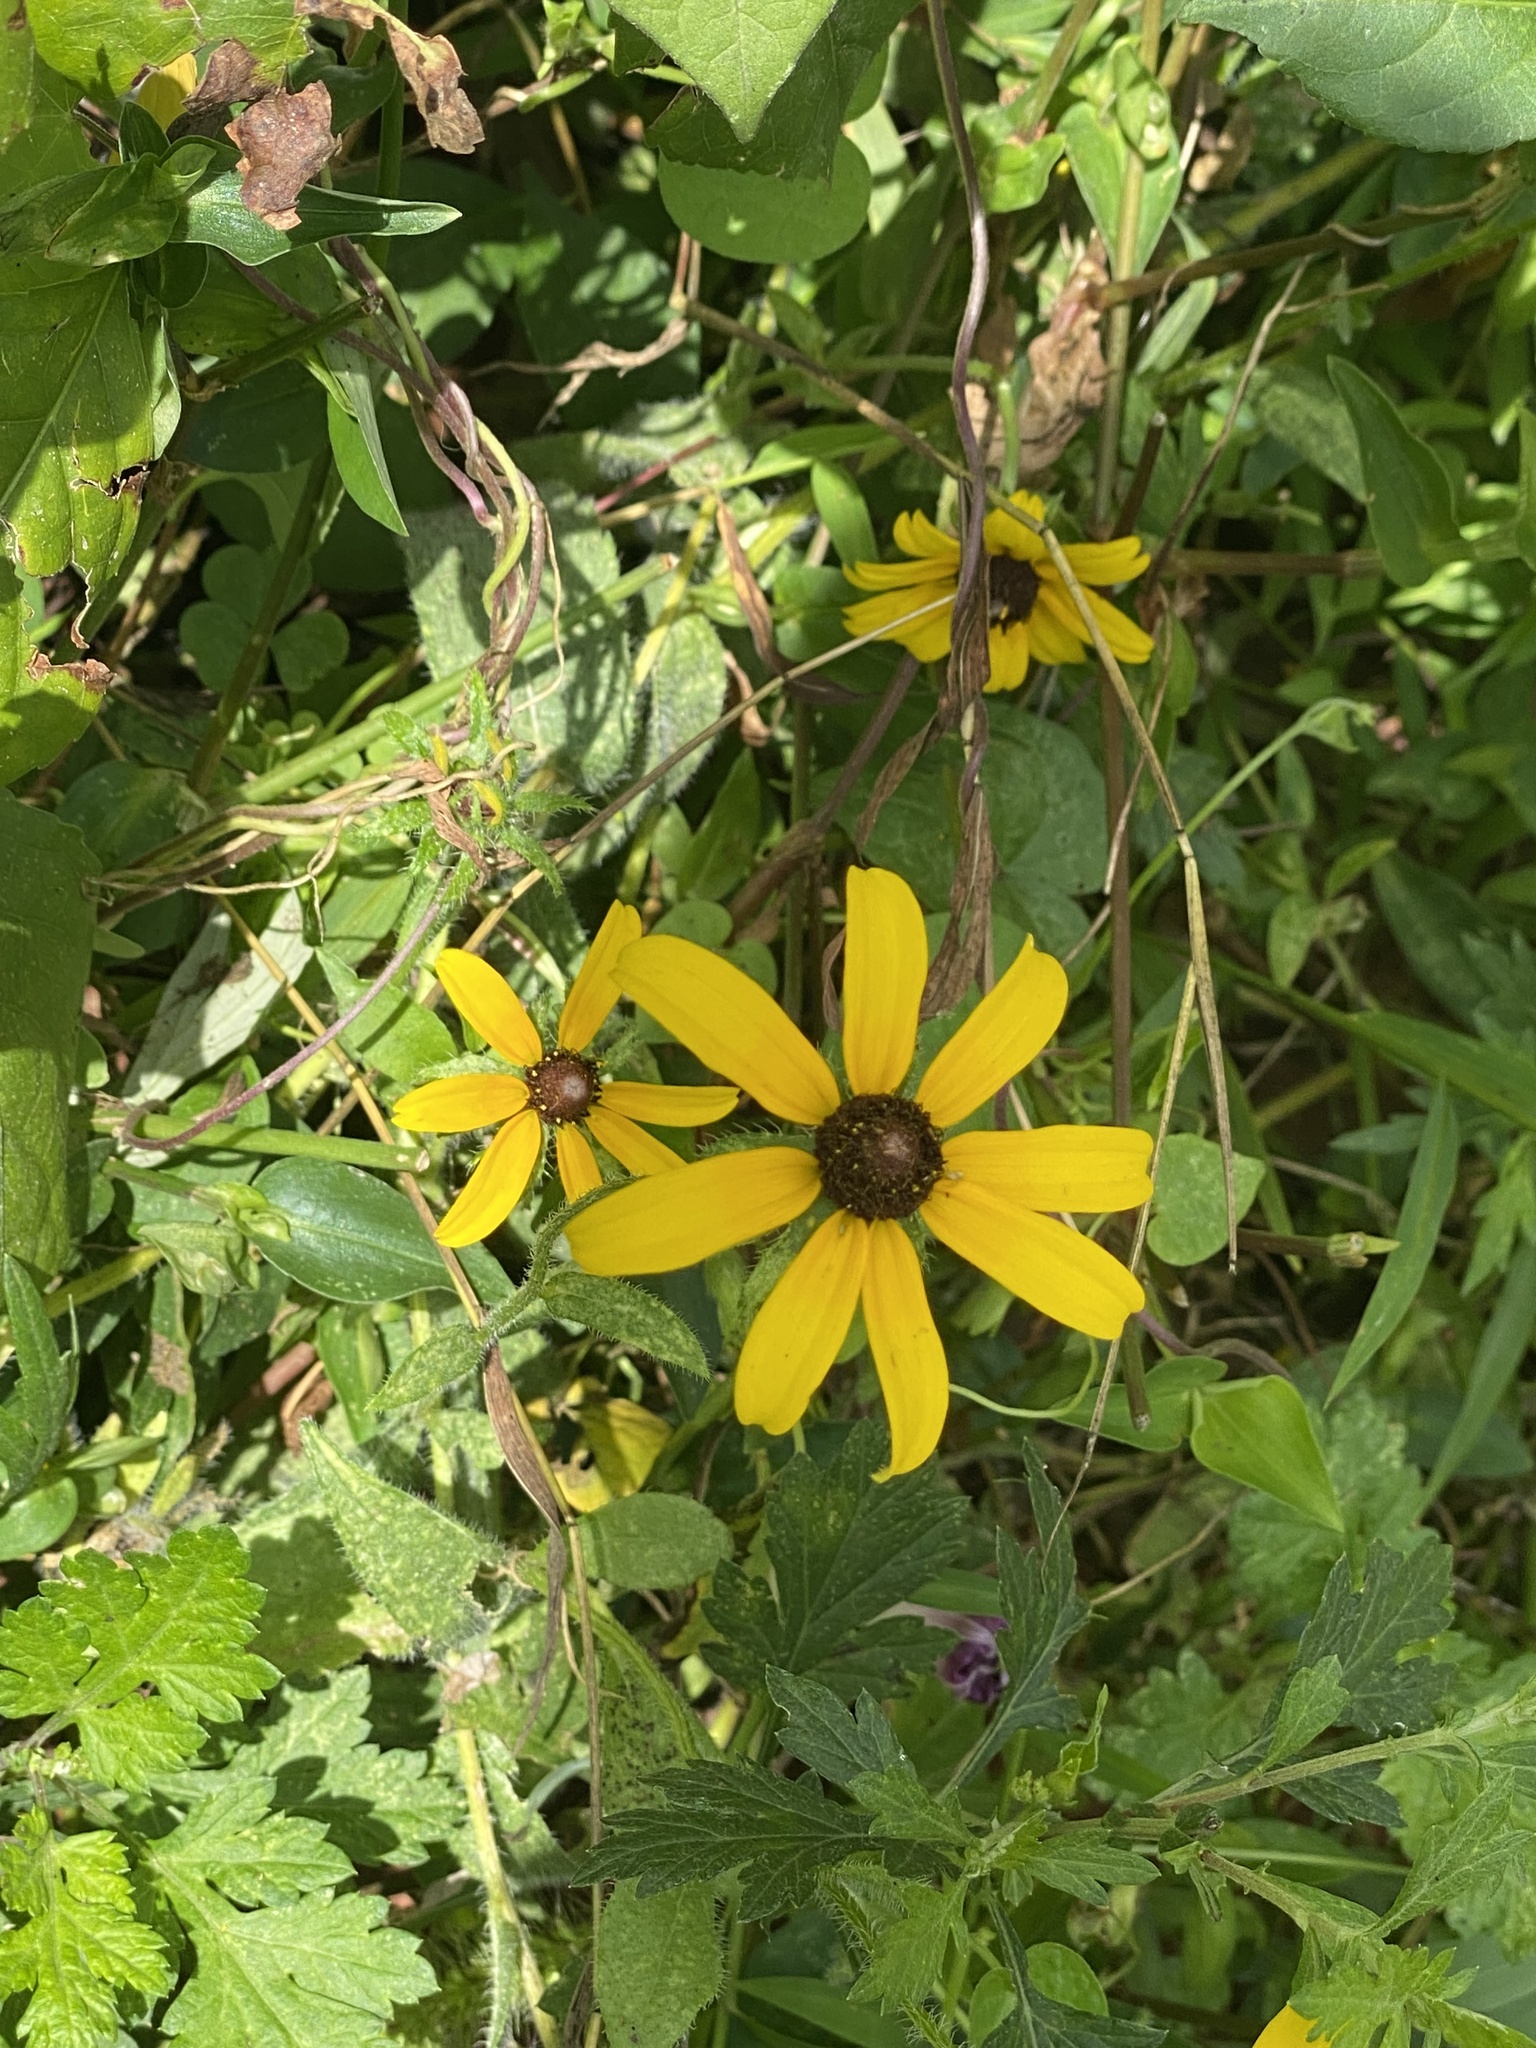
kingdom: Plantae
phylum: Tracheophyta
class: Magnoliopsida
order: Asterales
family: Asteraceae
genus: Rudbeckia
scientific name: Rudbeckia hirta
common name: Black-eyed-susan
